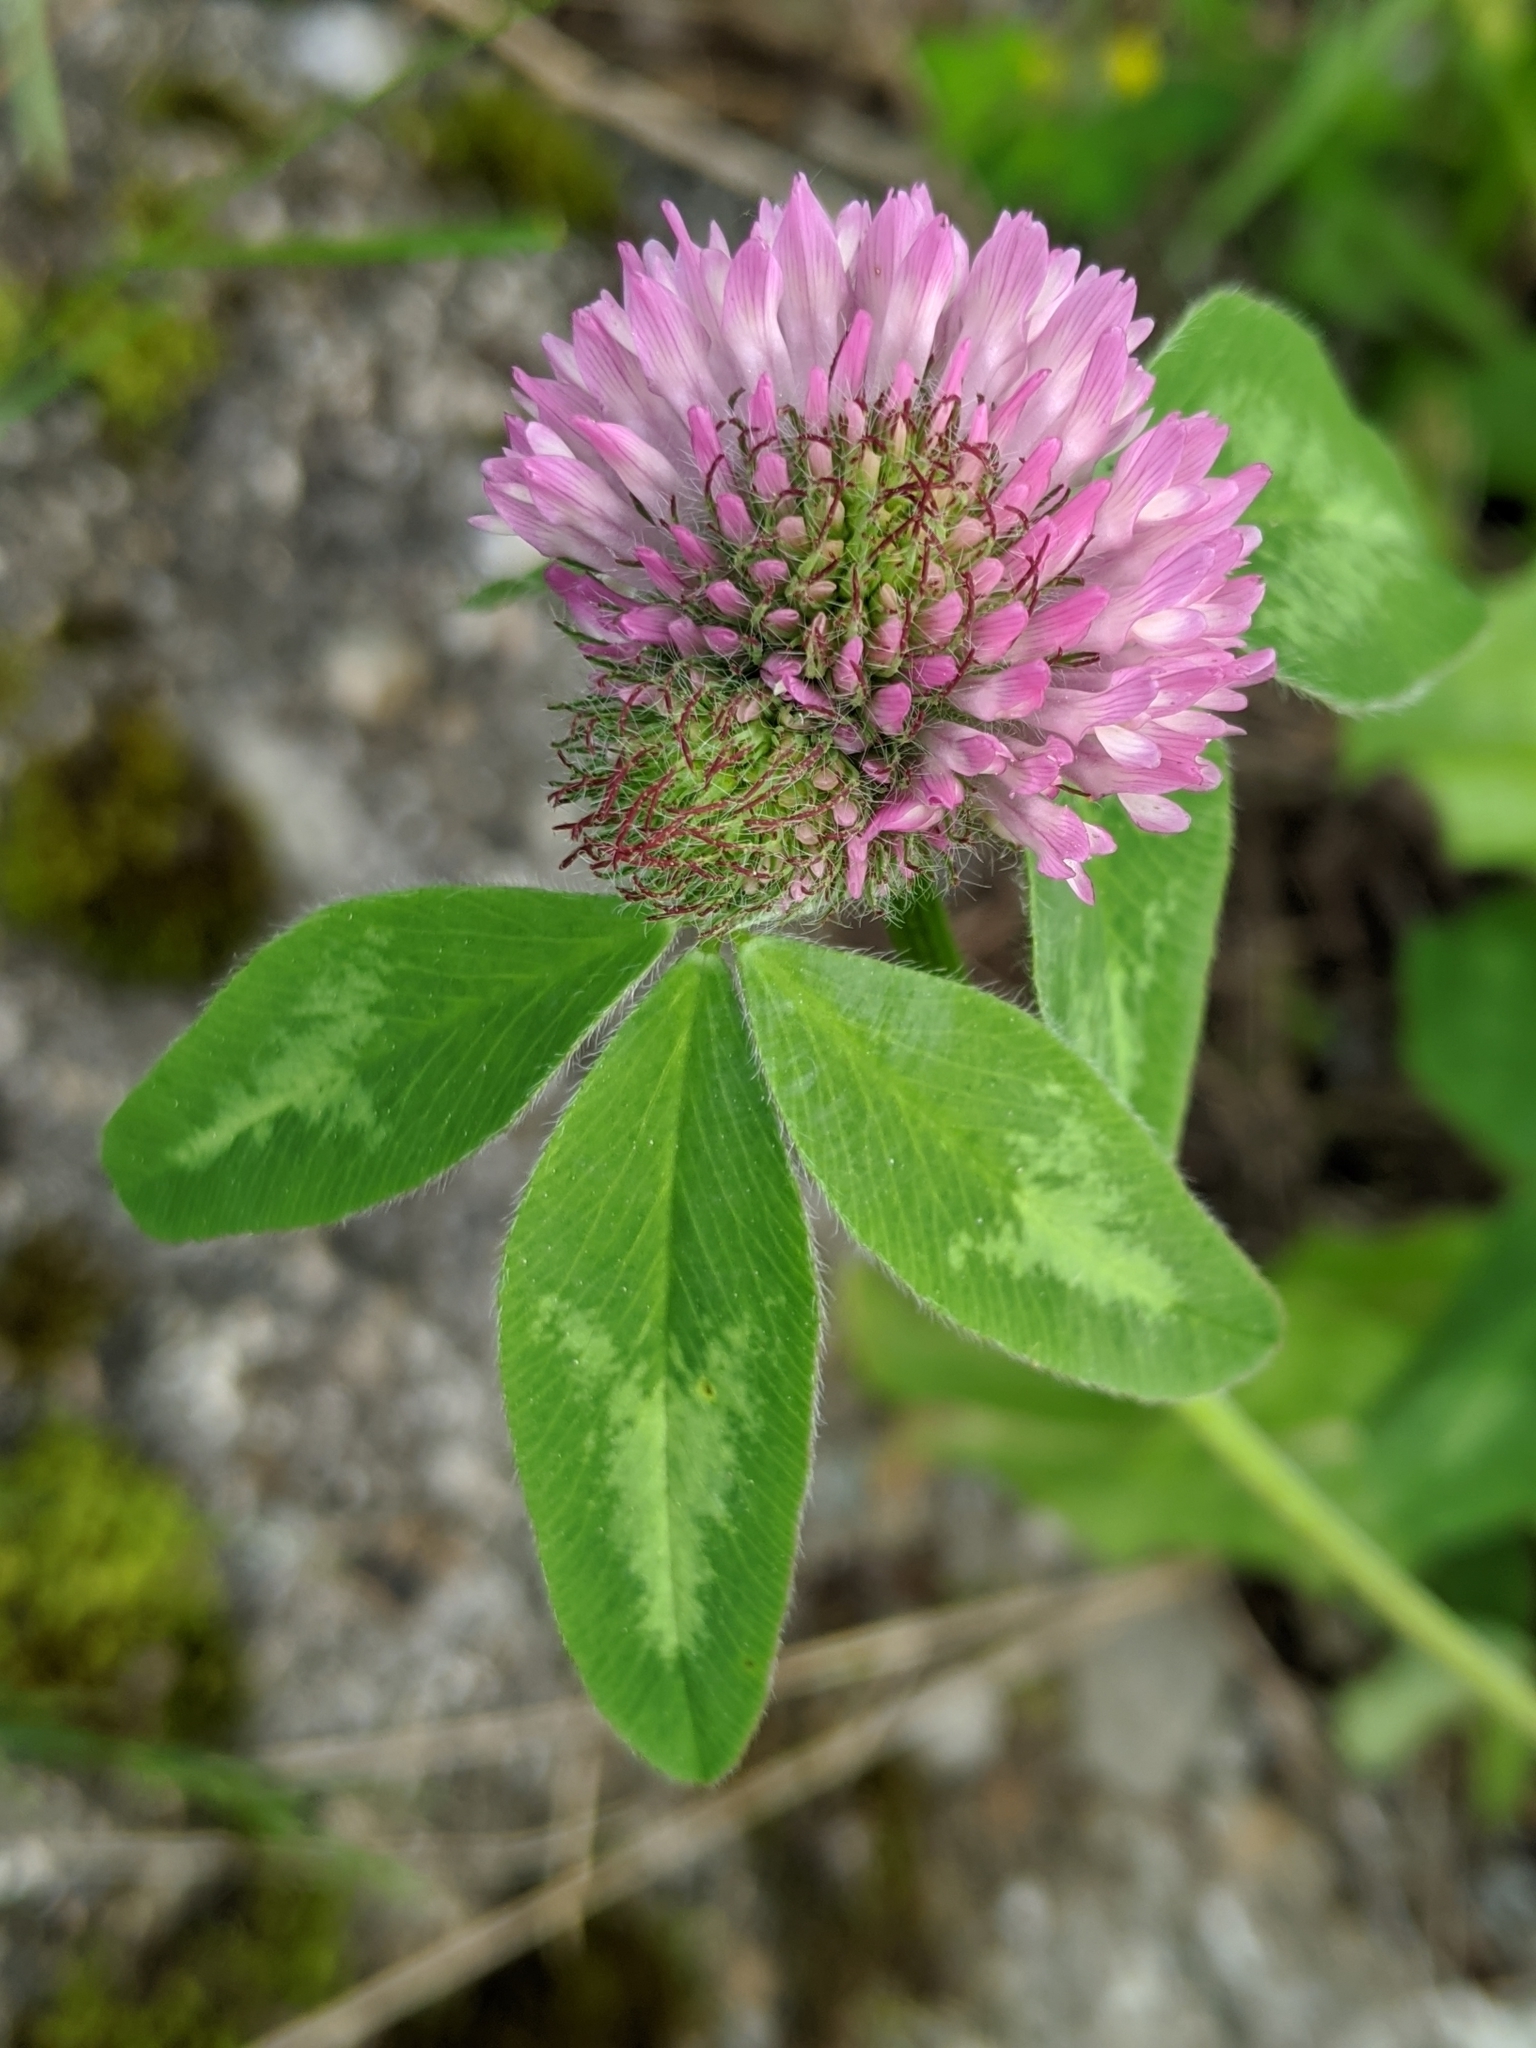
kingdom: Plantae
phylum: Tracheophyta
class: Magnoliopsida
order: Fabales
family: Fabaceae
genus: Trifolium
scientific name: Trifolium pratense
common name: Red clover
